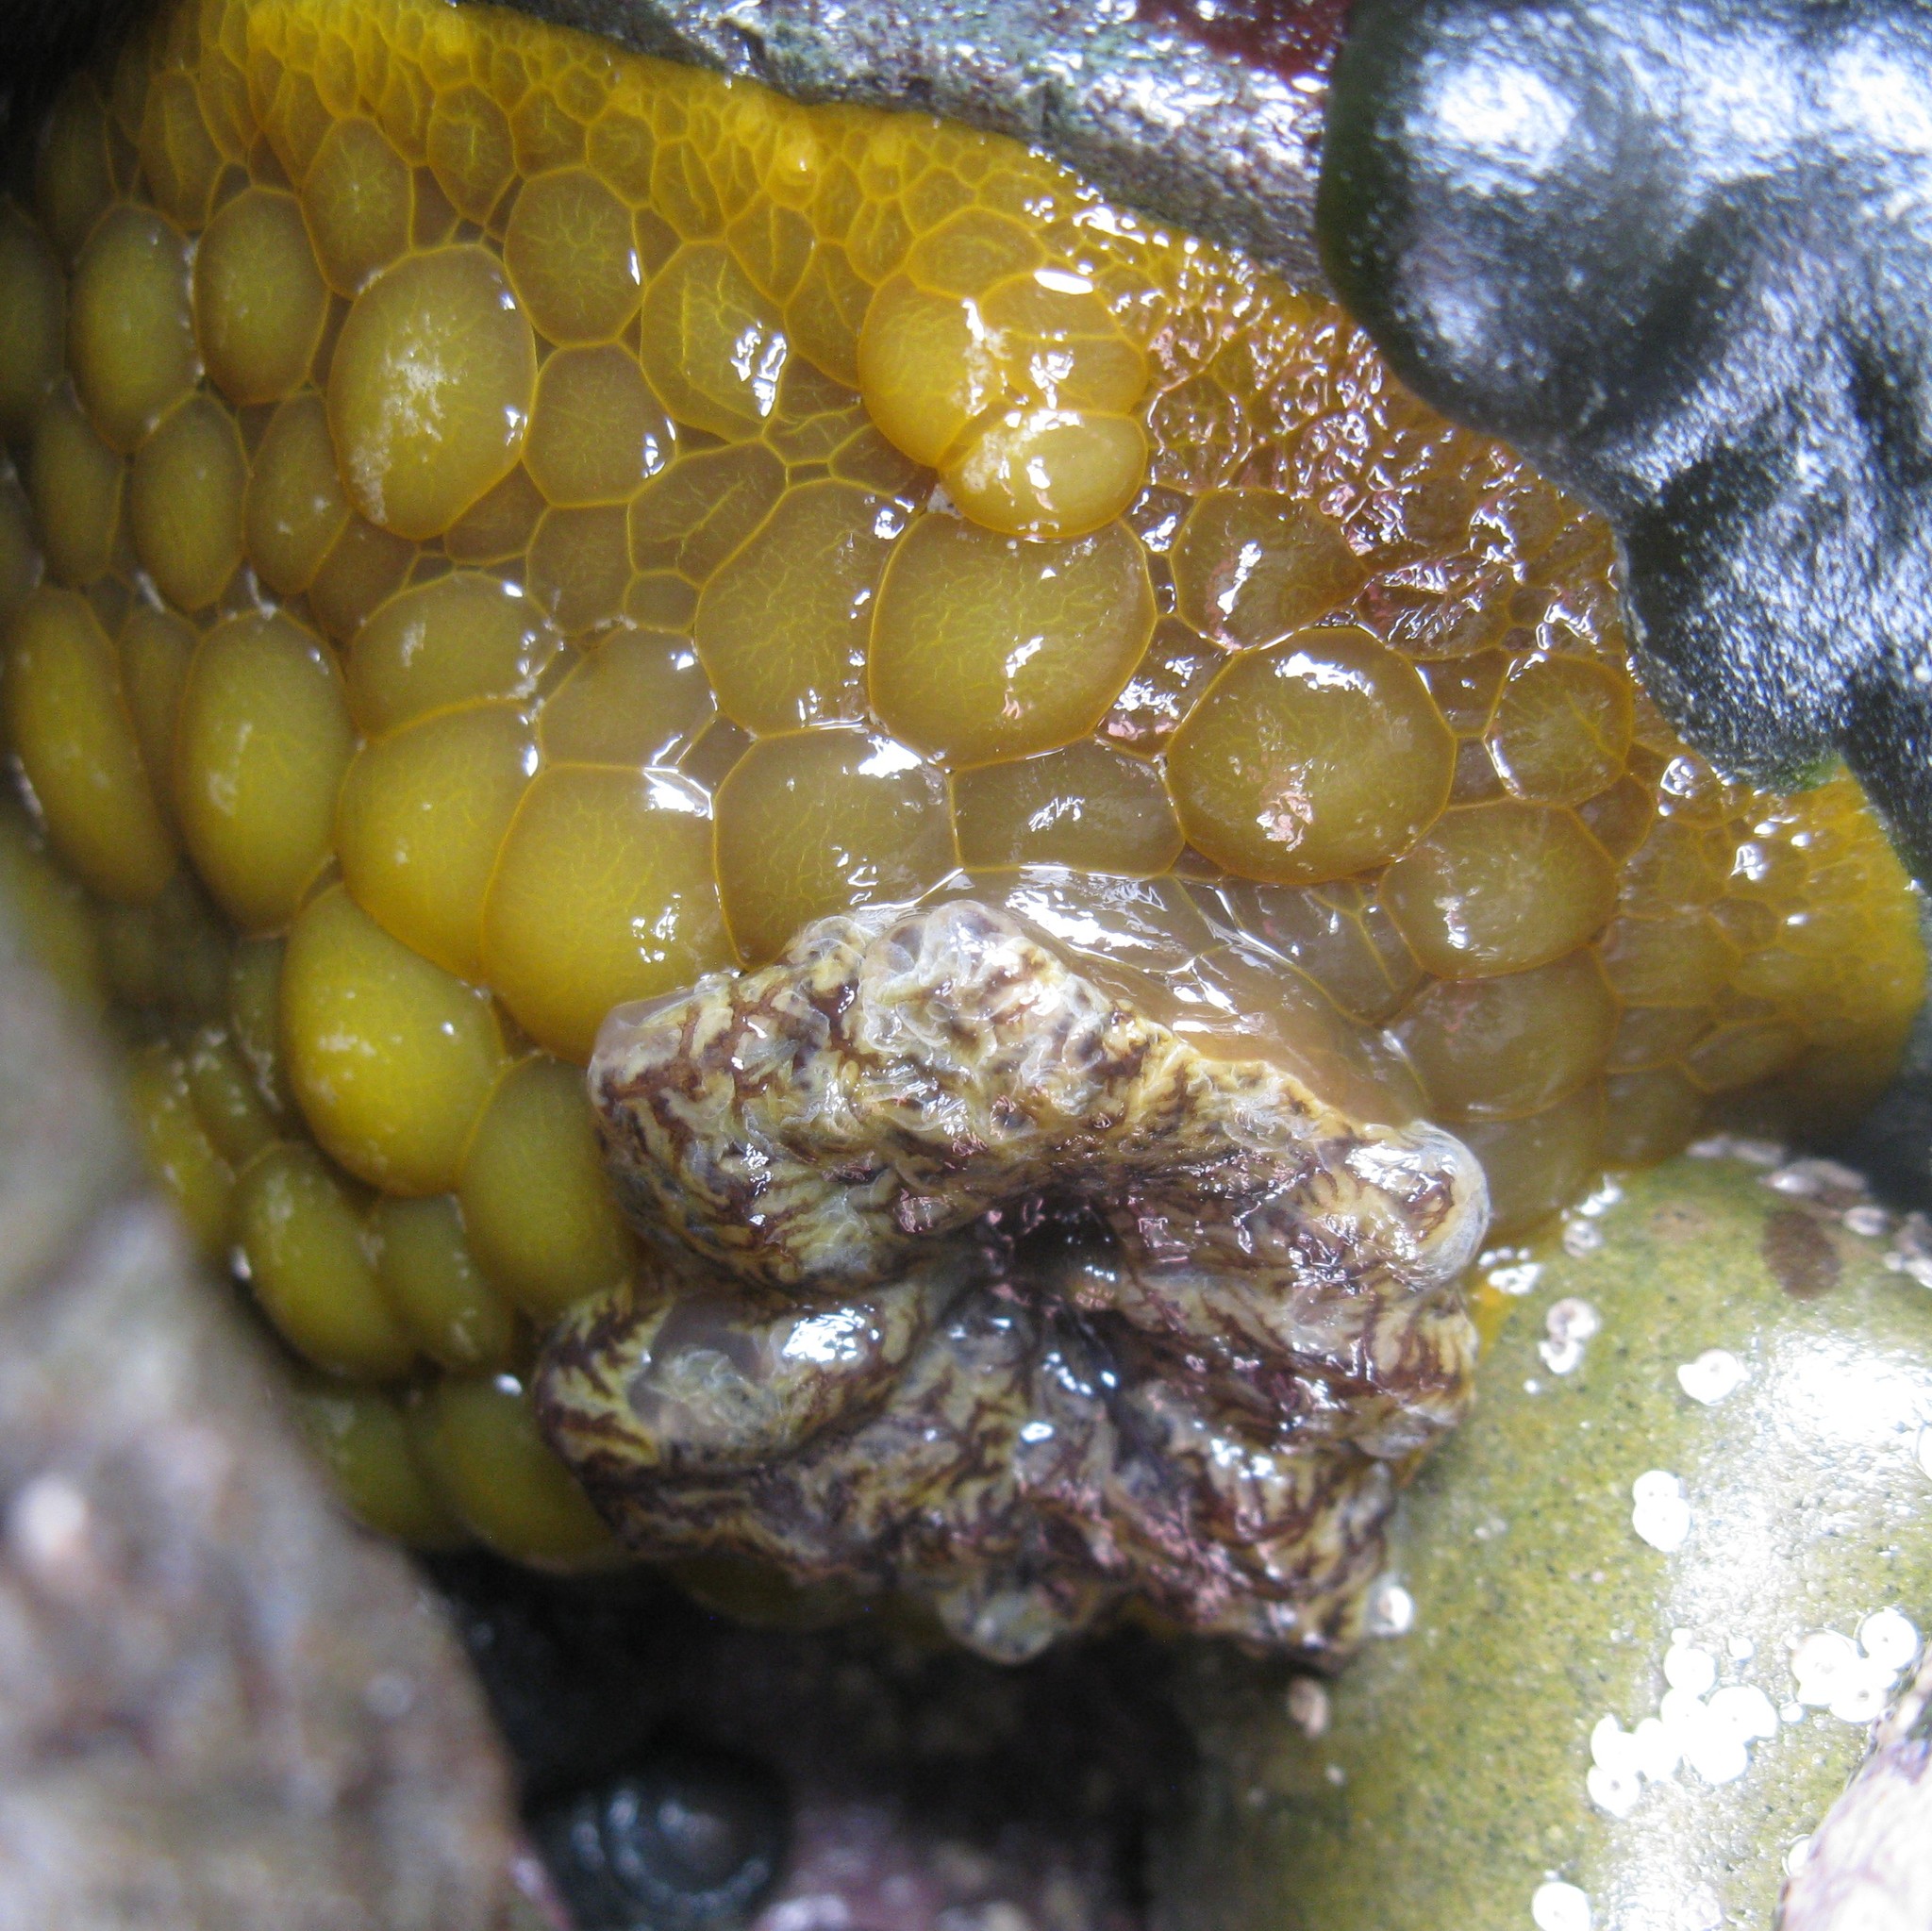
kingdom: Animalia
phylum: Mollusca
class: Gastropoda
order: Nudibranchia
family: Dorididae
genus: Doris
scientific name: Doris wellingtonensis
